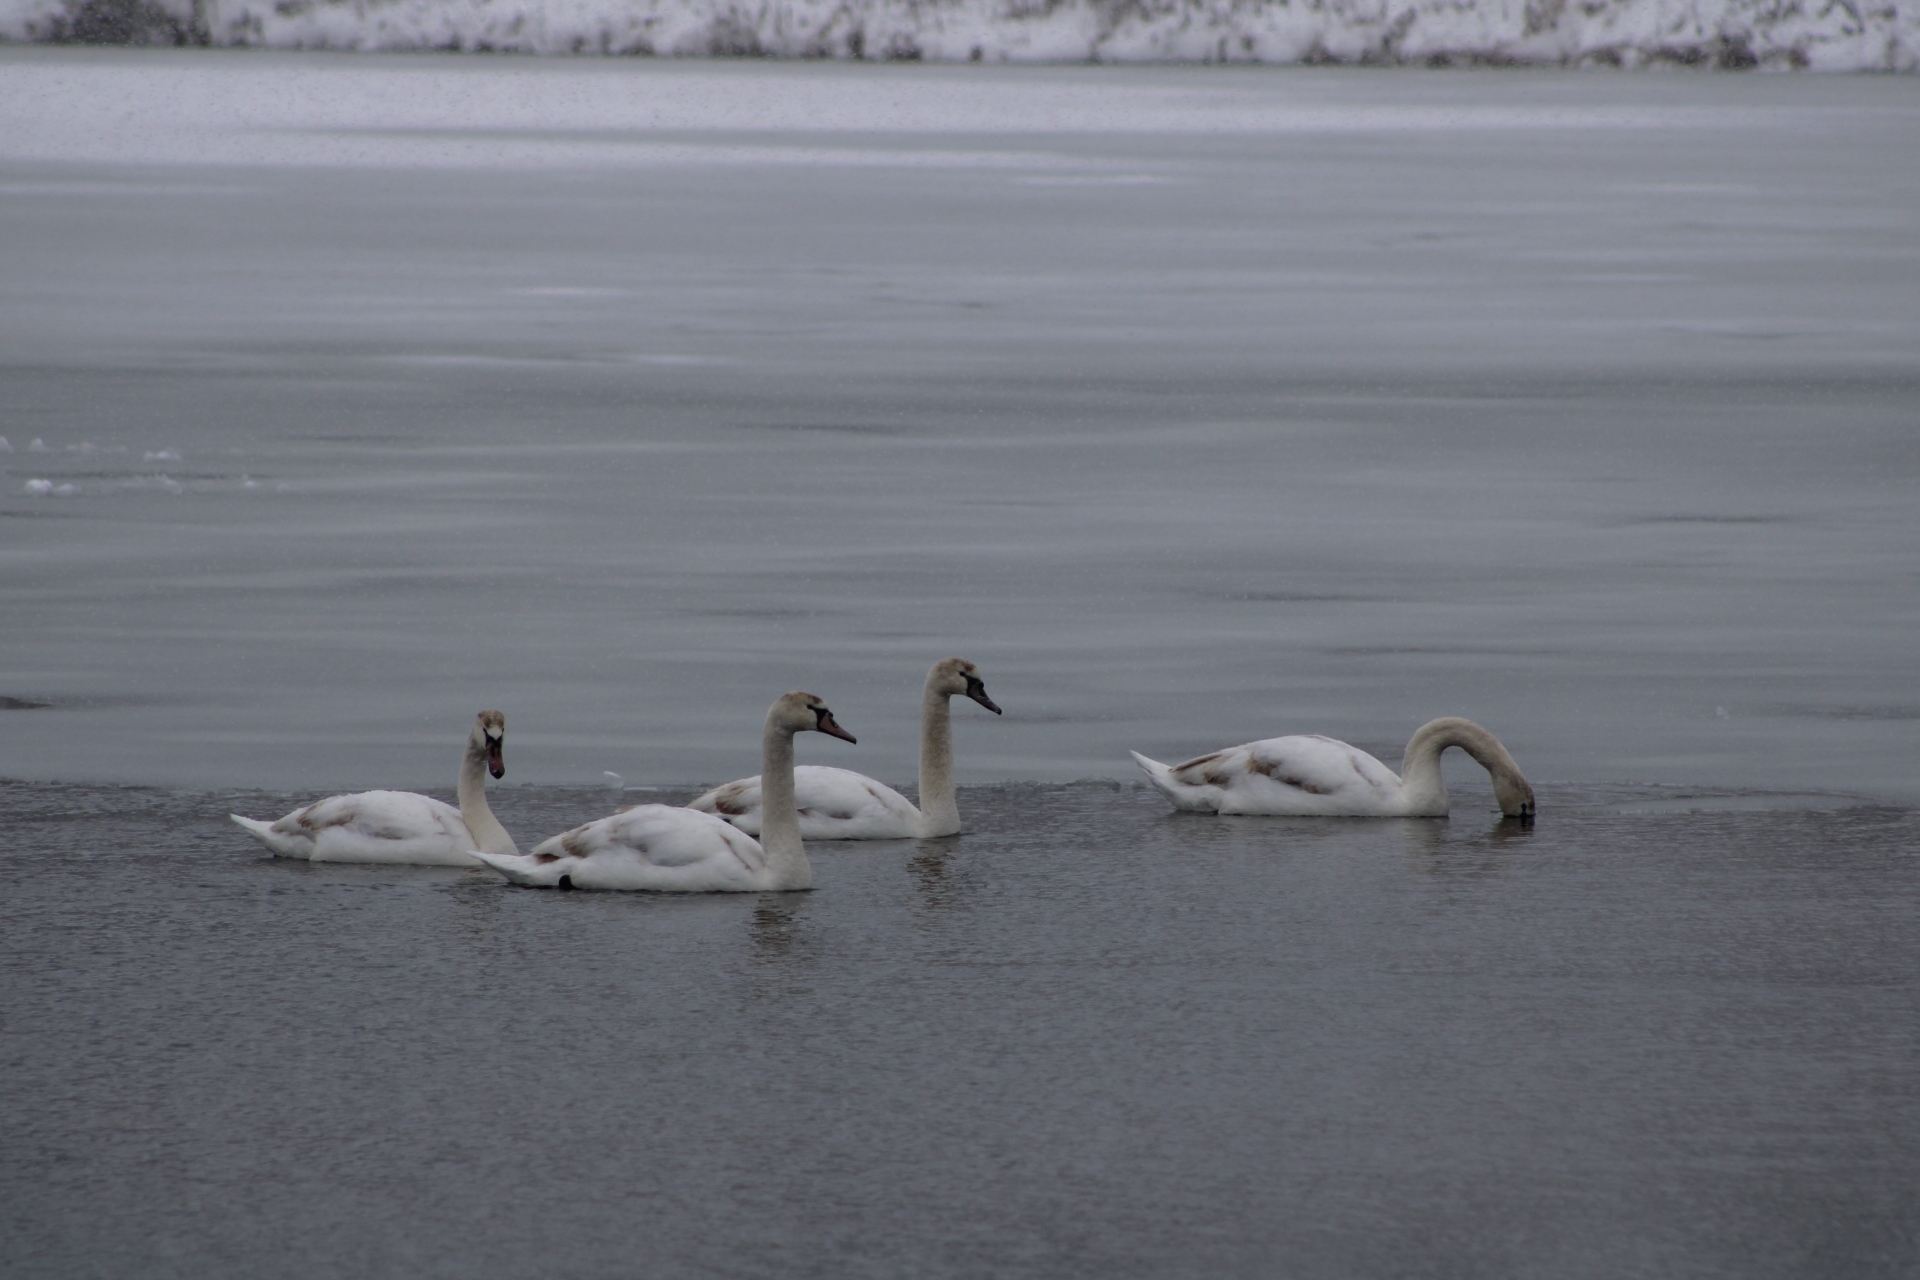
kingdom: Animalia
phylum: Chordata
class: Aves
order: Anseriformes
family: Anatidae
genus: Cygnus
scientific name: Cygnus olor
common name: Mute swan
